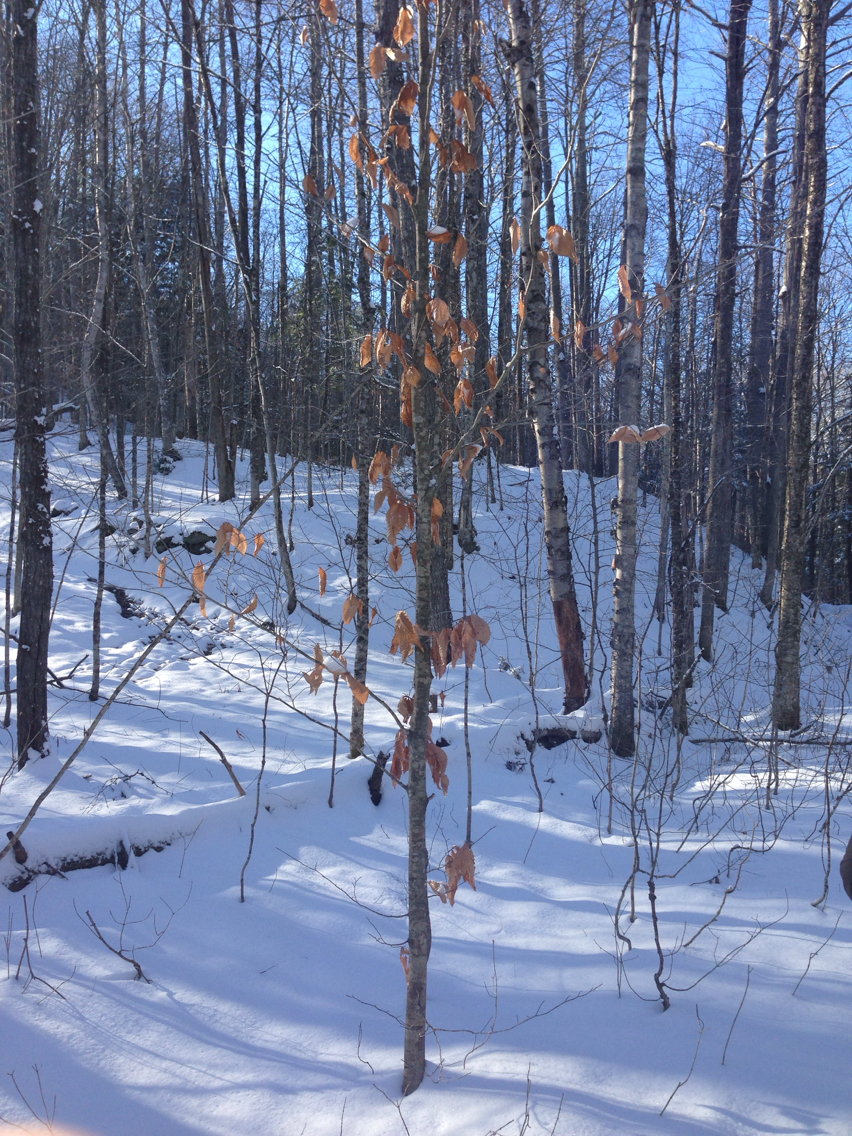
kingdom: Plantae
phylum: Tracheophyta
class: Magnoliopsida
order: Fagales
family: Fagaceae
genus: Fagus
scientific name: Fagus grandifolia
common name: American beech
